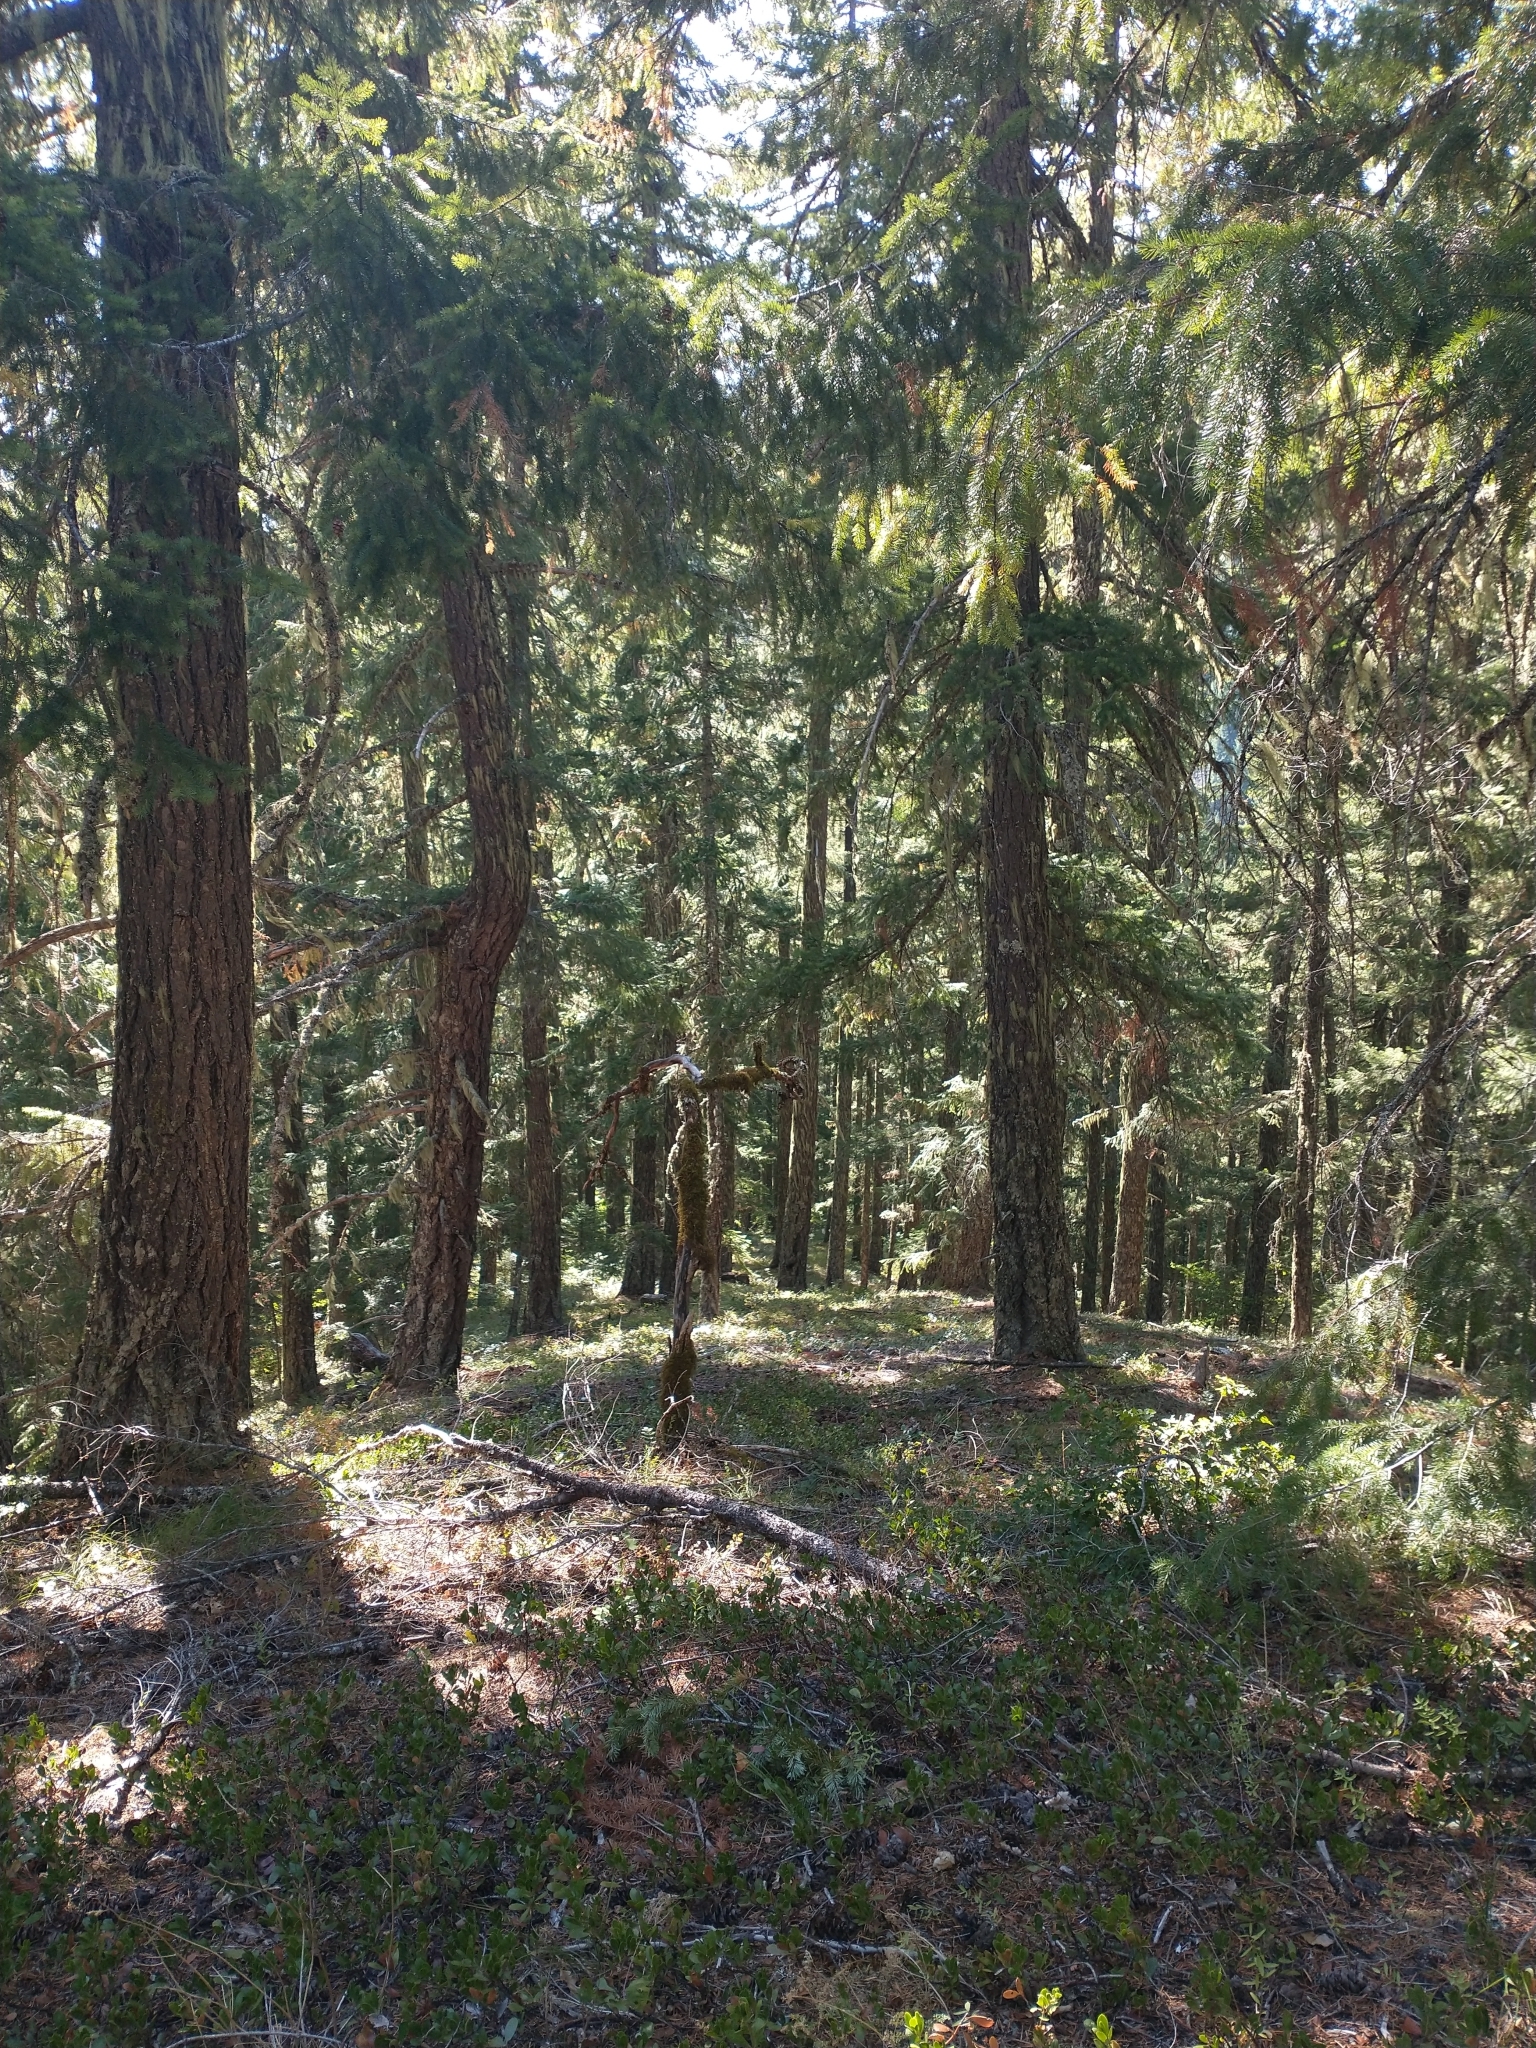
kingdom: Plantae
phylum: Tracheophyta
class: Pinopsida
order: Pinales
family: Pinaceae
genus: Pseudotsuga
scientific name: Pseudotsuga menziesii
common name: Douglas fir
